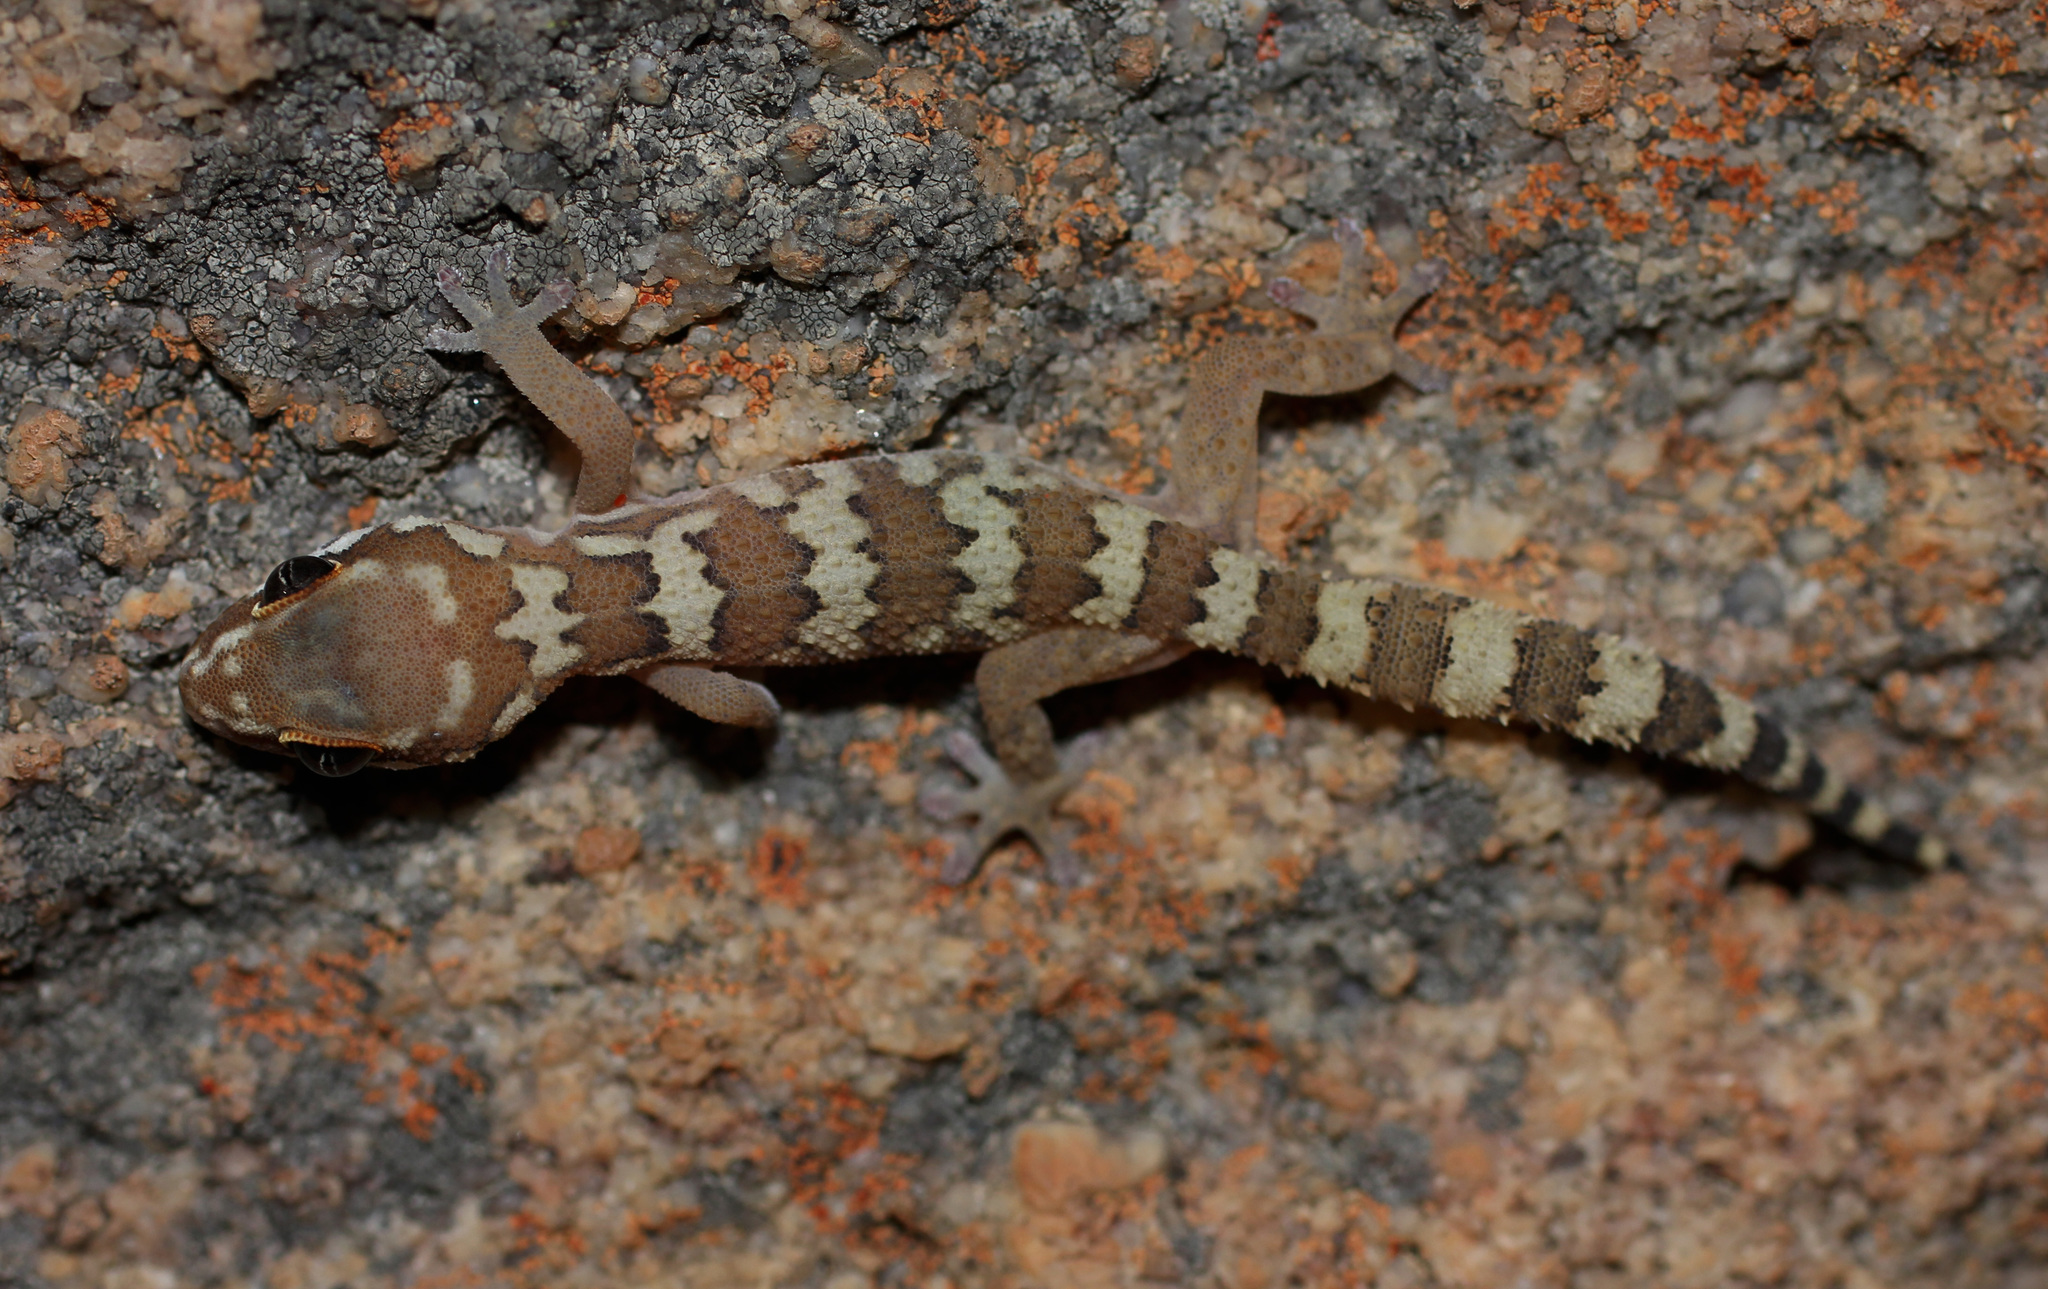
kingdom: Animalia
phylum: Chordata
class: Squamata
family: Gekkonidae
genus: Pachydactylus
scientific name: Pachydactylus formosus
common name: Southern rough gecko
